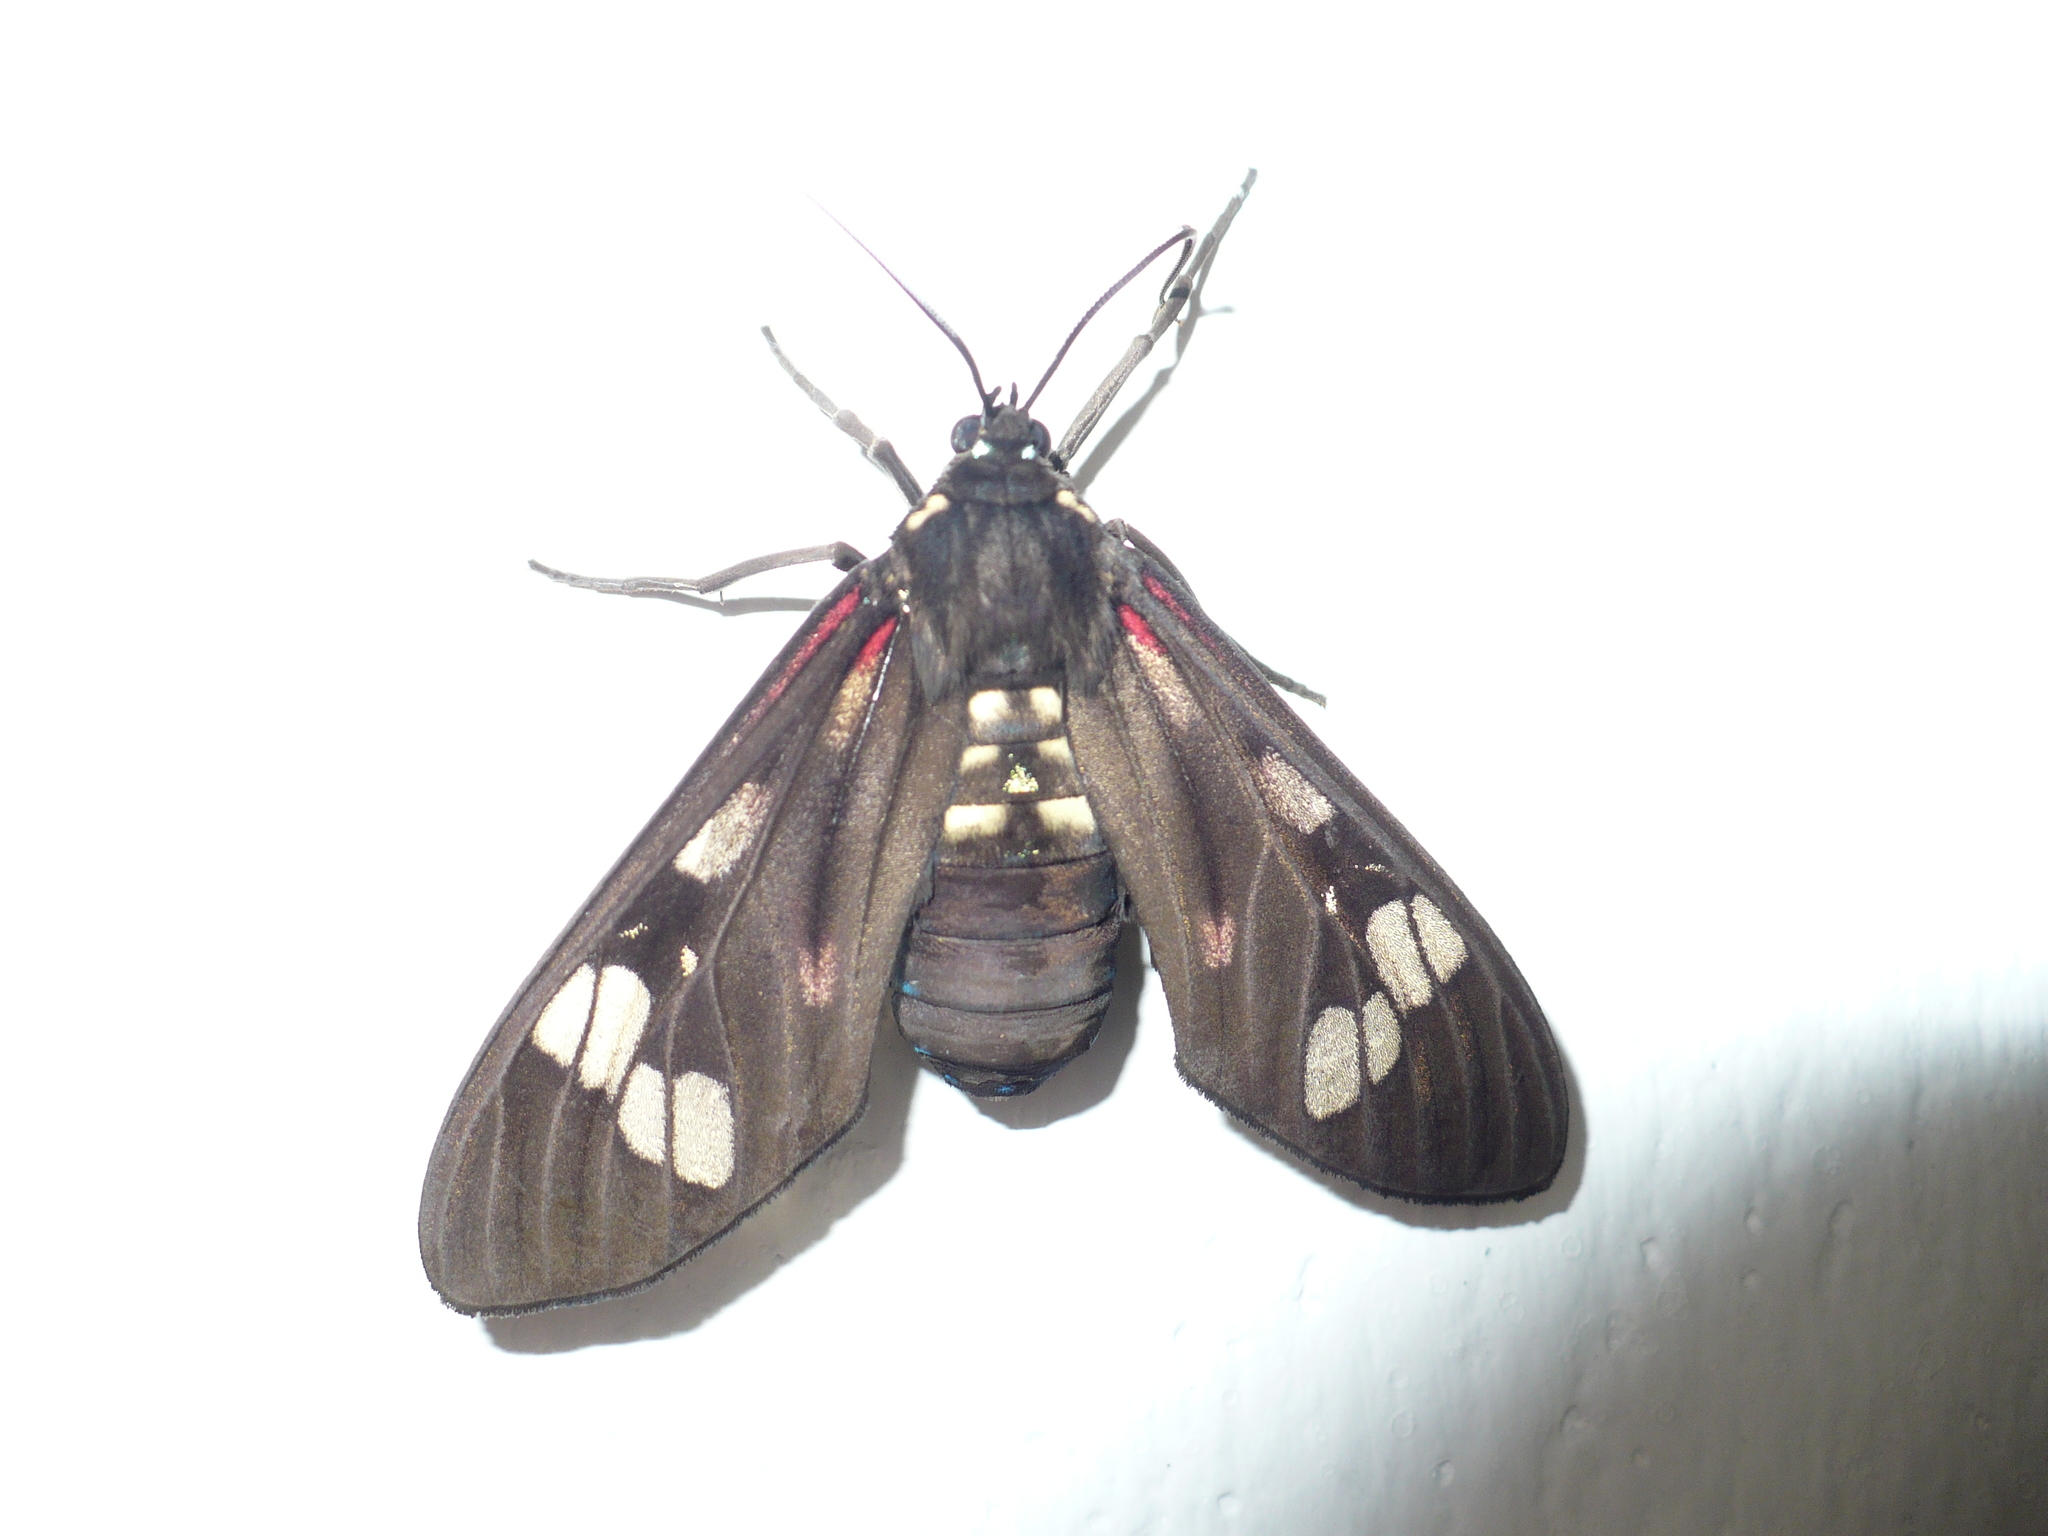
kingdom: Animalia
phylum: Arthropoda
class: Insecta
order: Lepidoptera
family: Erebidae
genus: Histioea
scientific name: Histioea cepheus
